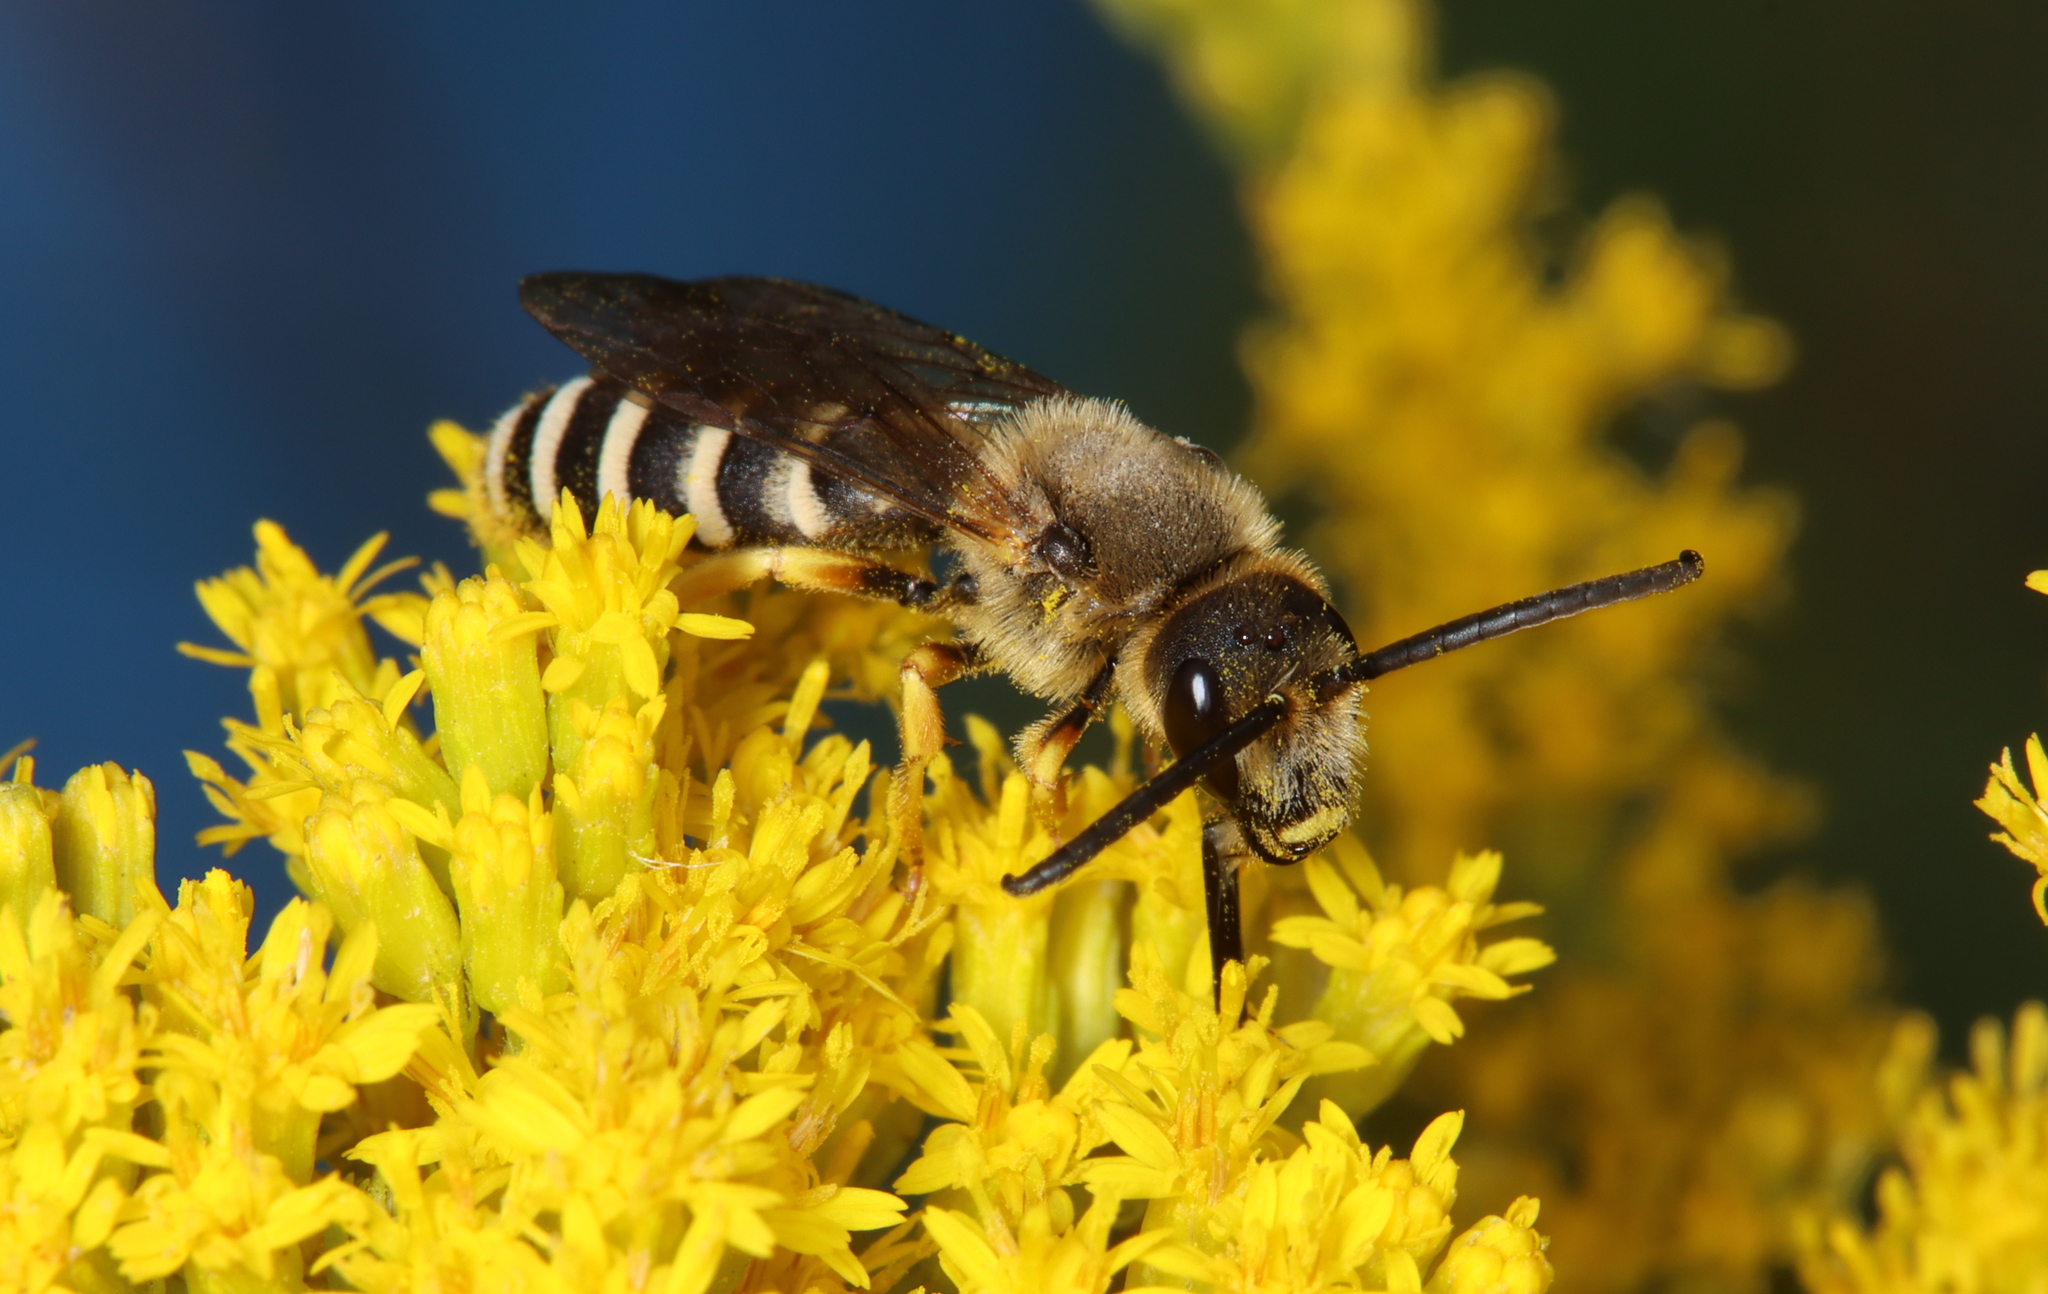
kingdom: Animalia
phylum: Arthropoda
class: Insecta
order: Hymenoptera
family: Halictidae
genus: Halictus
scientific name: Halictus scabiosae
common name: Great banded furrow bee
